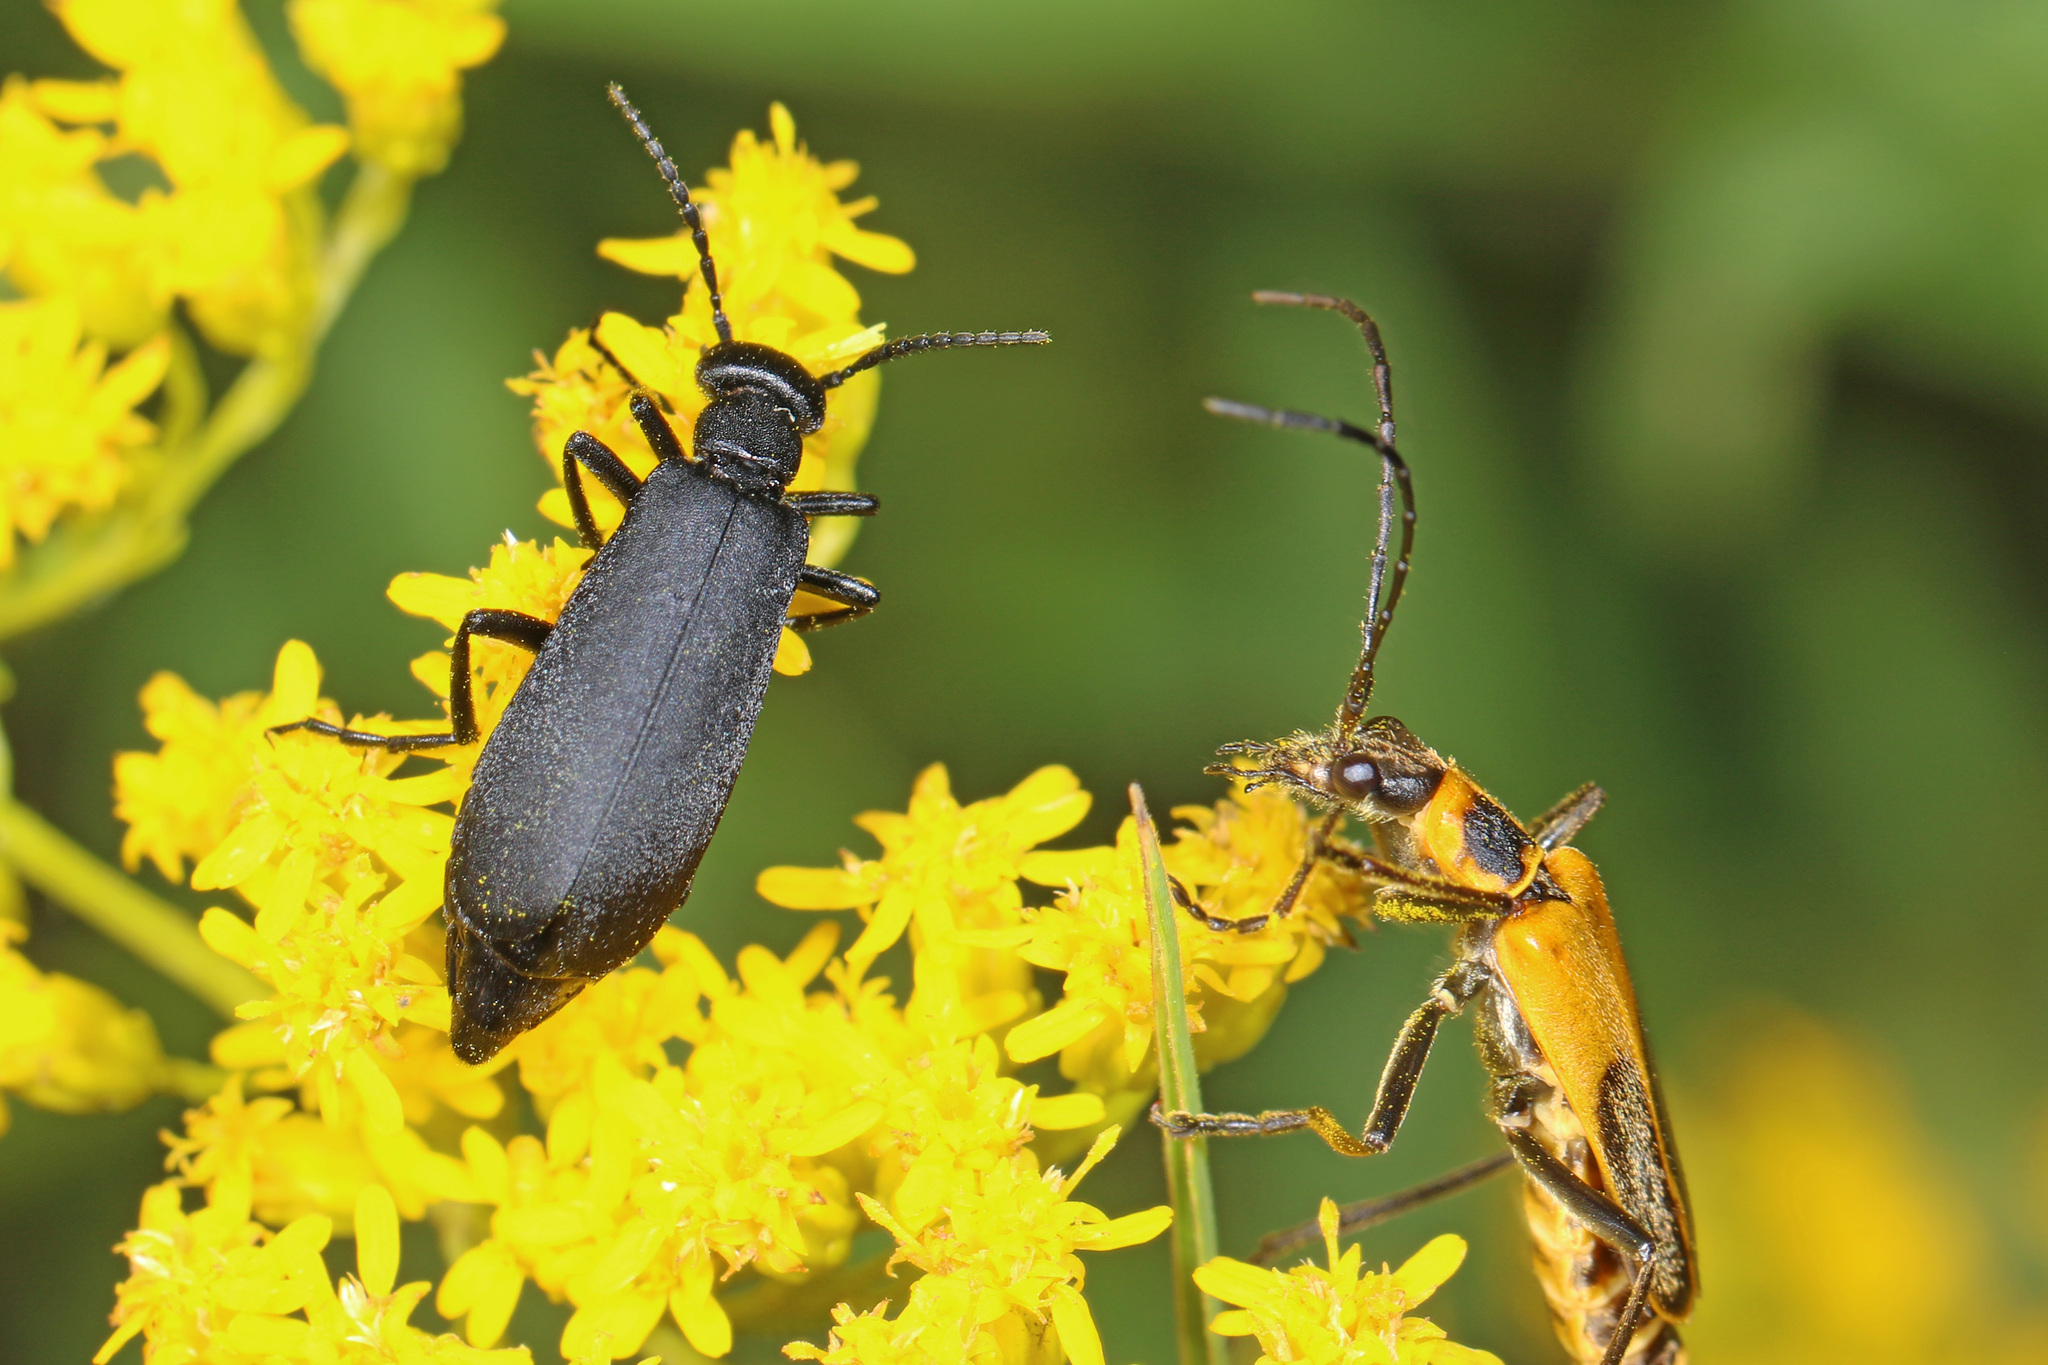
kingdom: Animalia
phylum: Arthropoda
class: Insecta
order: Coleoptera
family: Meloidae
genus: Epicauta
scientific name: Epicauta pensylvanica
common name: Black blister beetle
